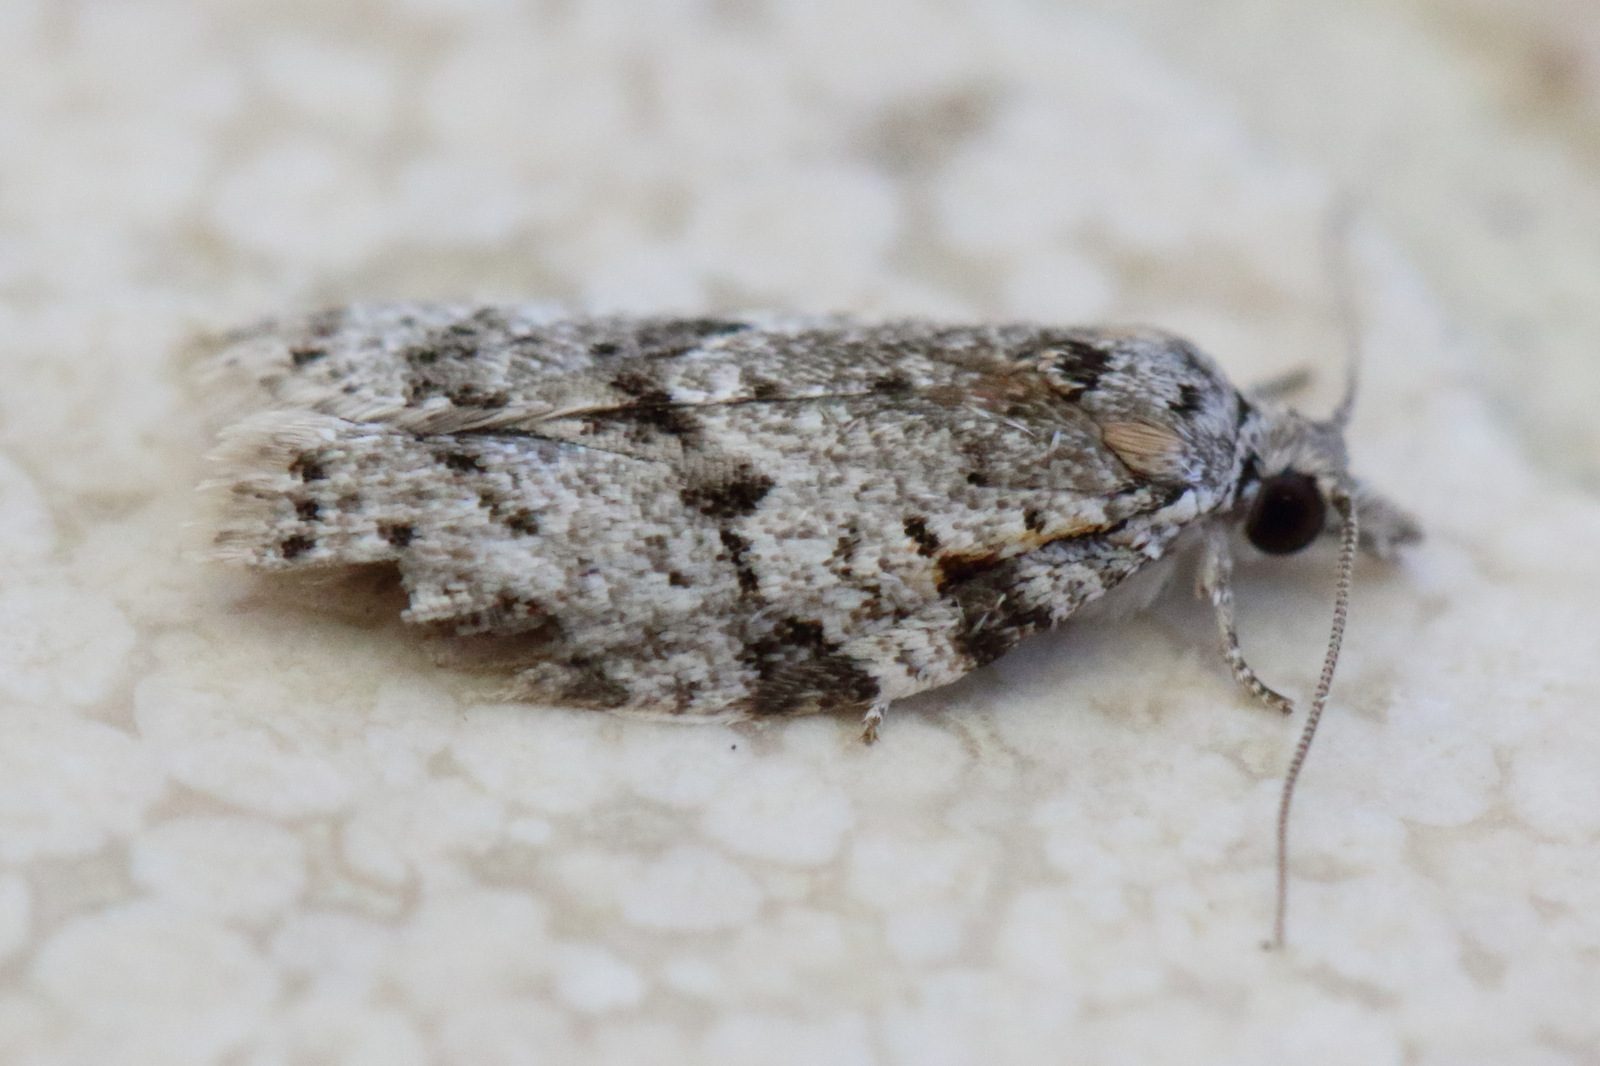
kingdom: Animalia
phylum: Arthropoda
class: Insecta
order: Lepidoptera
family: Tortricidae
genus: Isotenes
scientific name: Isotenes miserana
